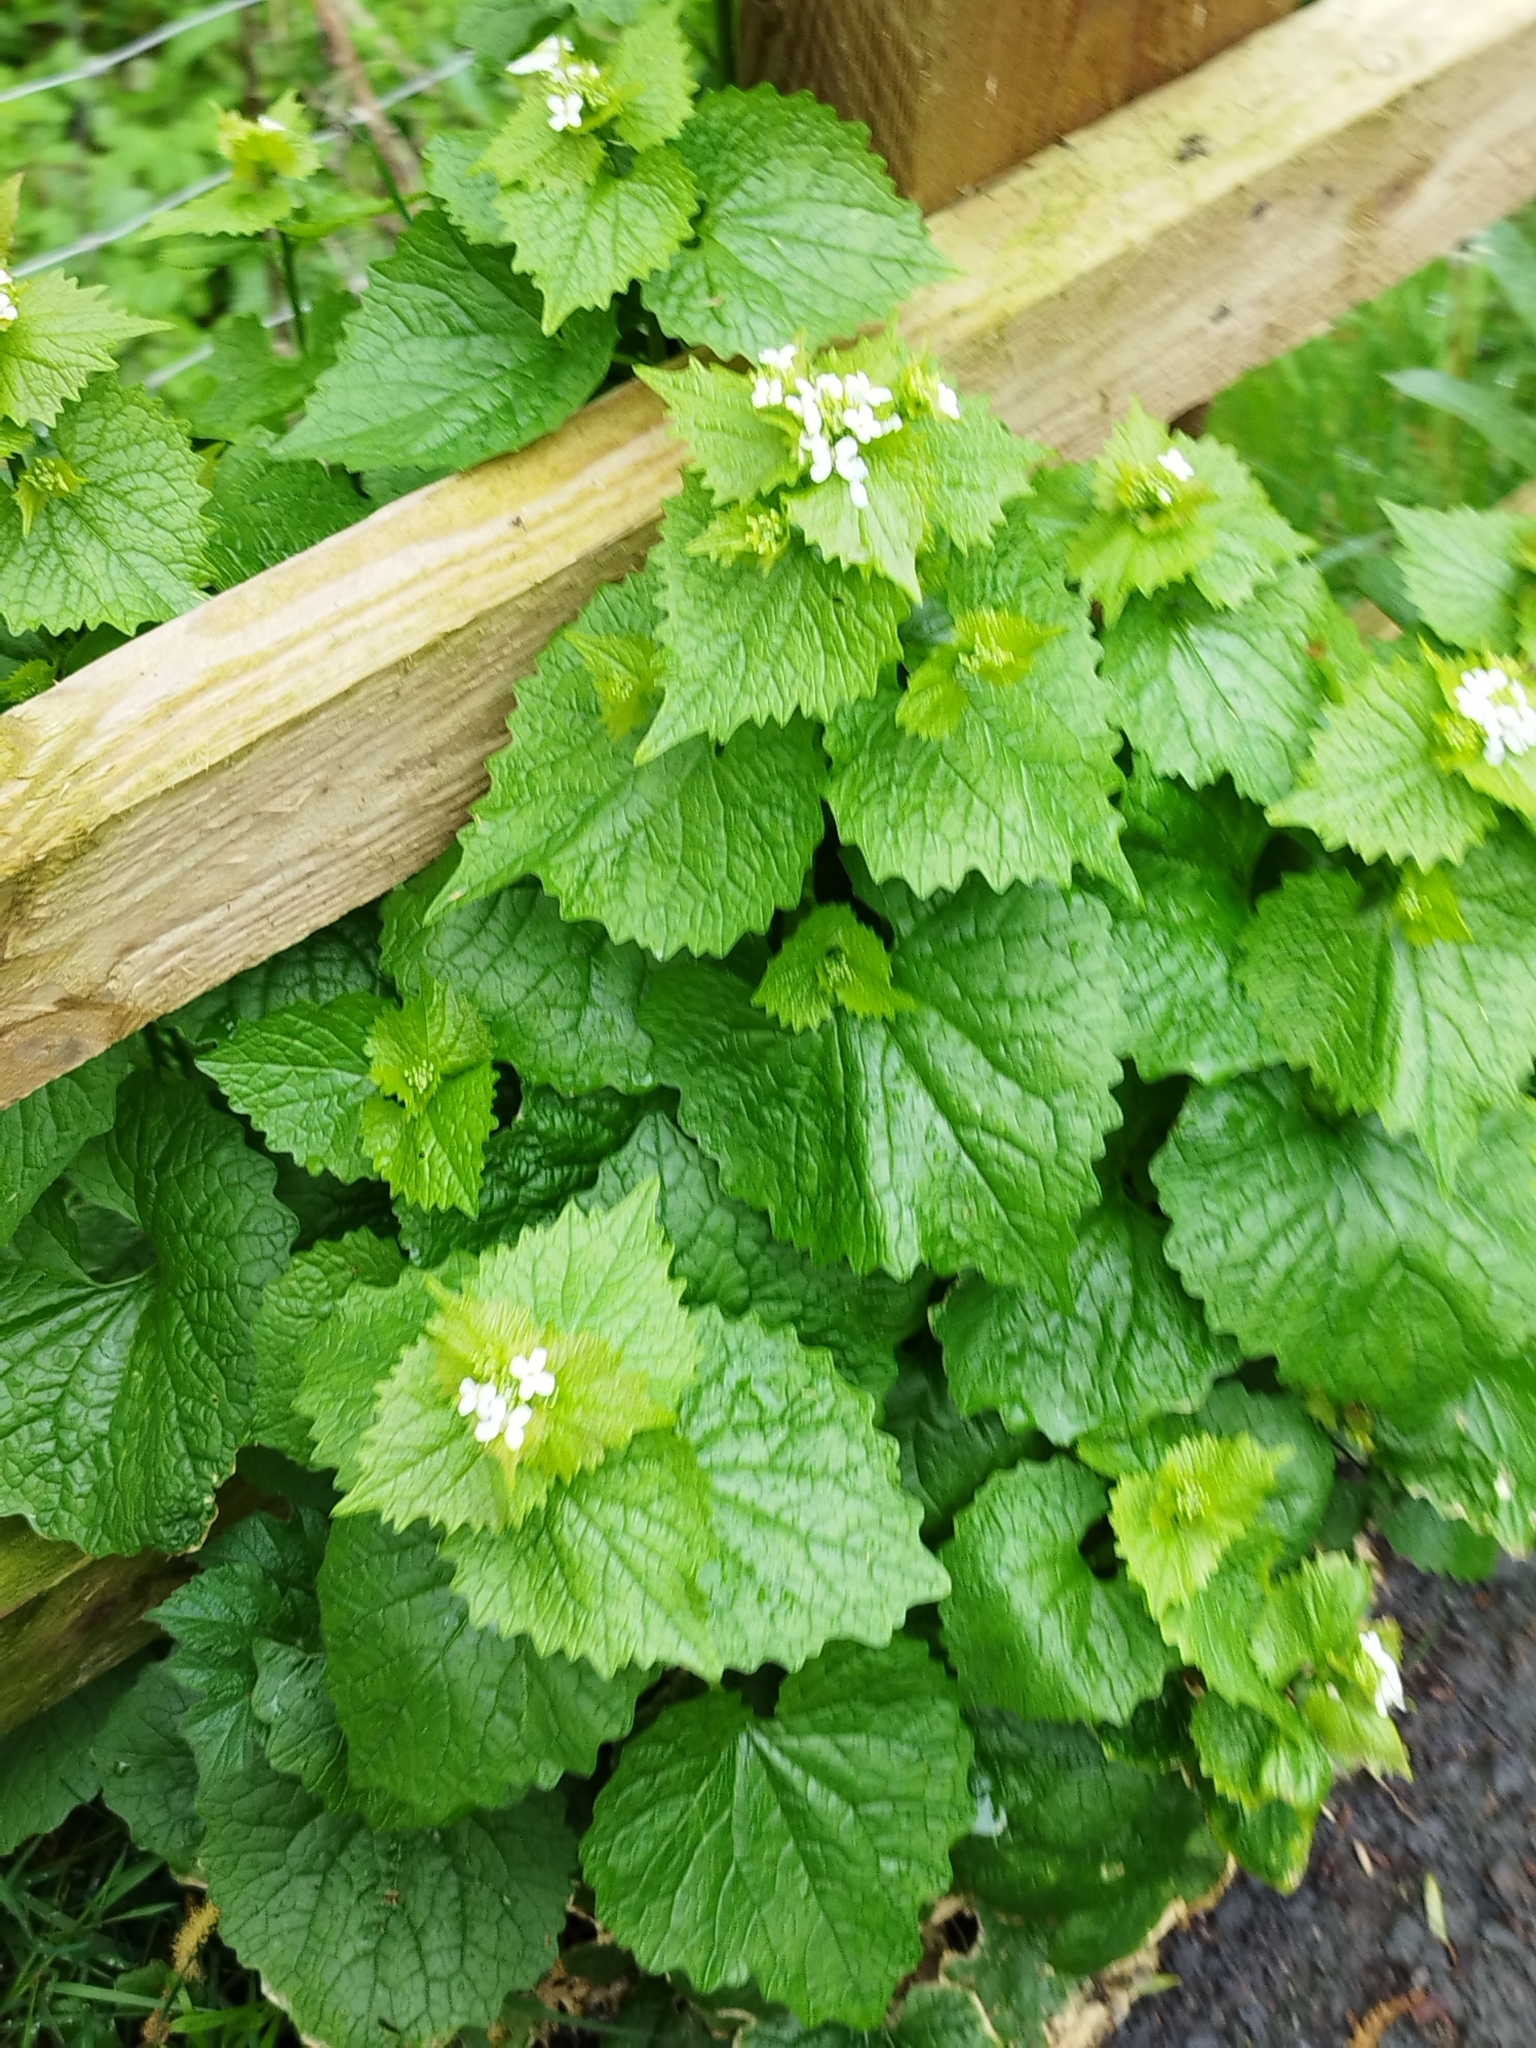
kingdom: Plantae
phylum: Tracheophyta
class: Magnoliopsida
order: Brassicales
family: Brassicaceae
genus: Alliaria
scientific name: Alliaria petiolata
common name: Garlic mustard
